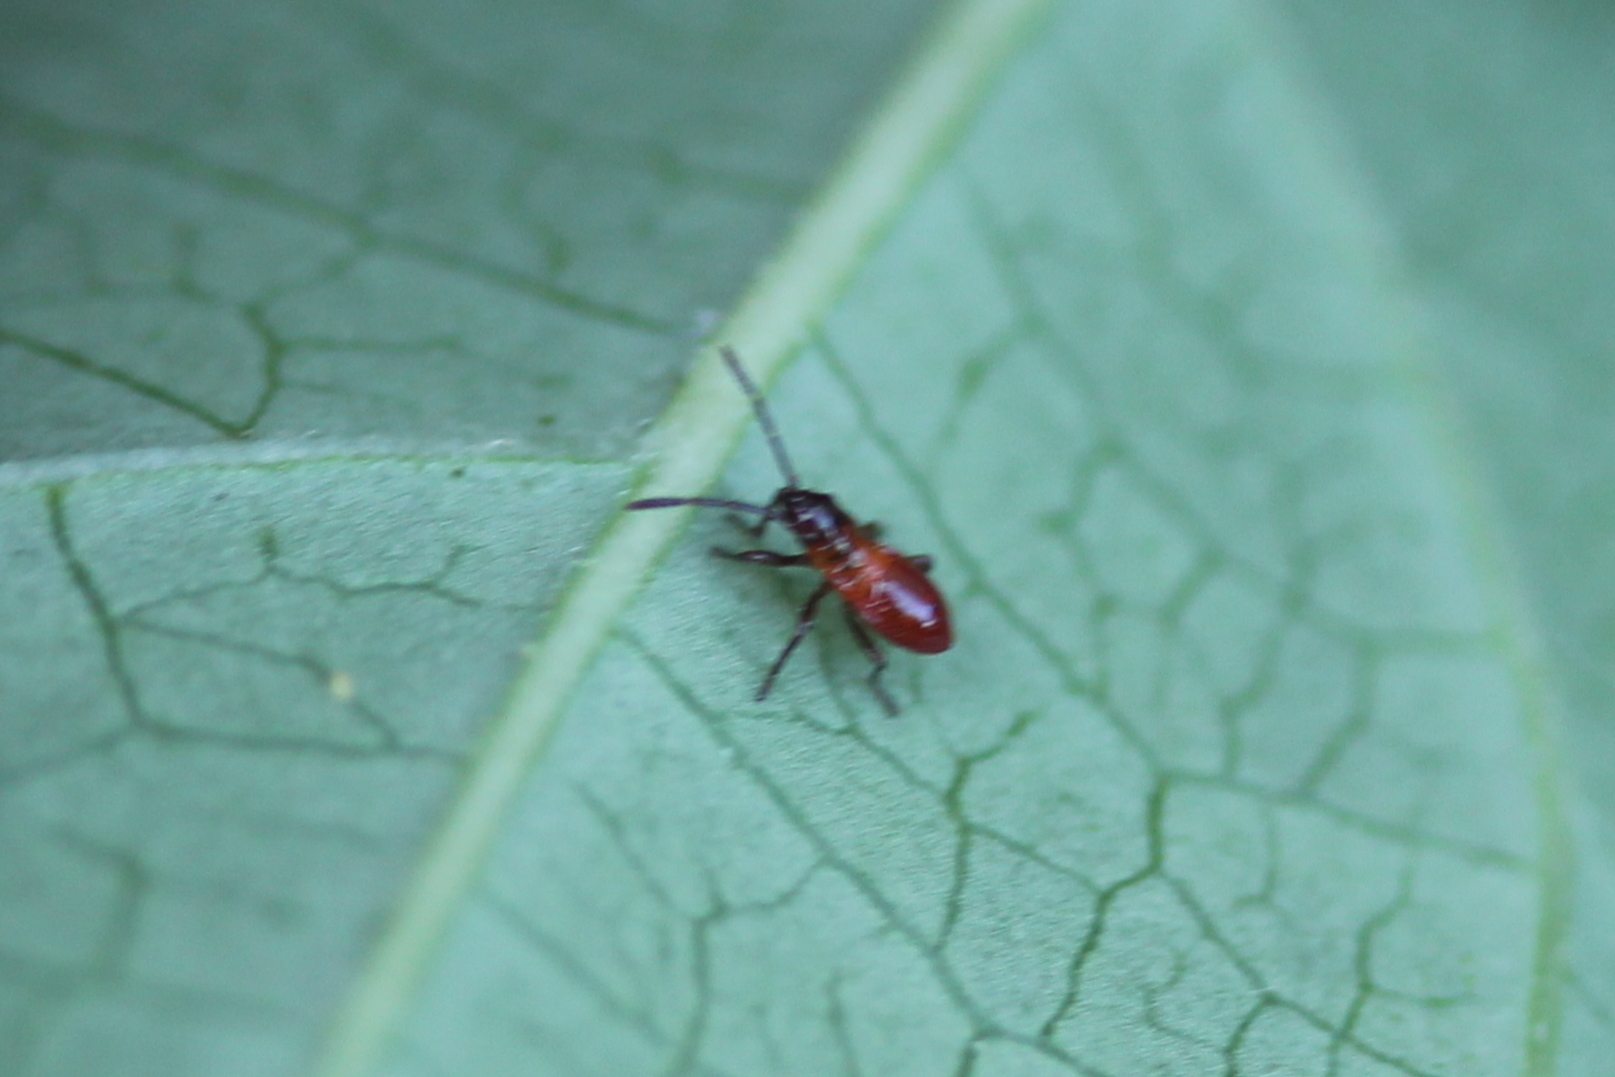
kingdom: Animalia
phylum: Arthropoda
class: Insecta
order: Hemiptera
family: Lygaeidae
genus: Oncopeltus
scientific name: Oncopeltus fasciatus
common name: Large milkweed bug
